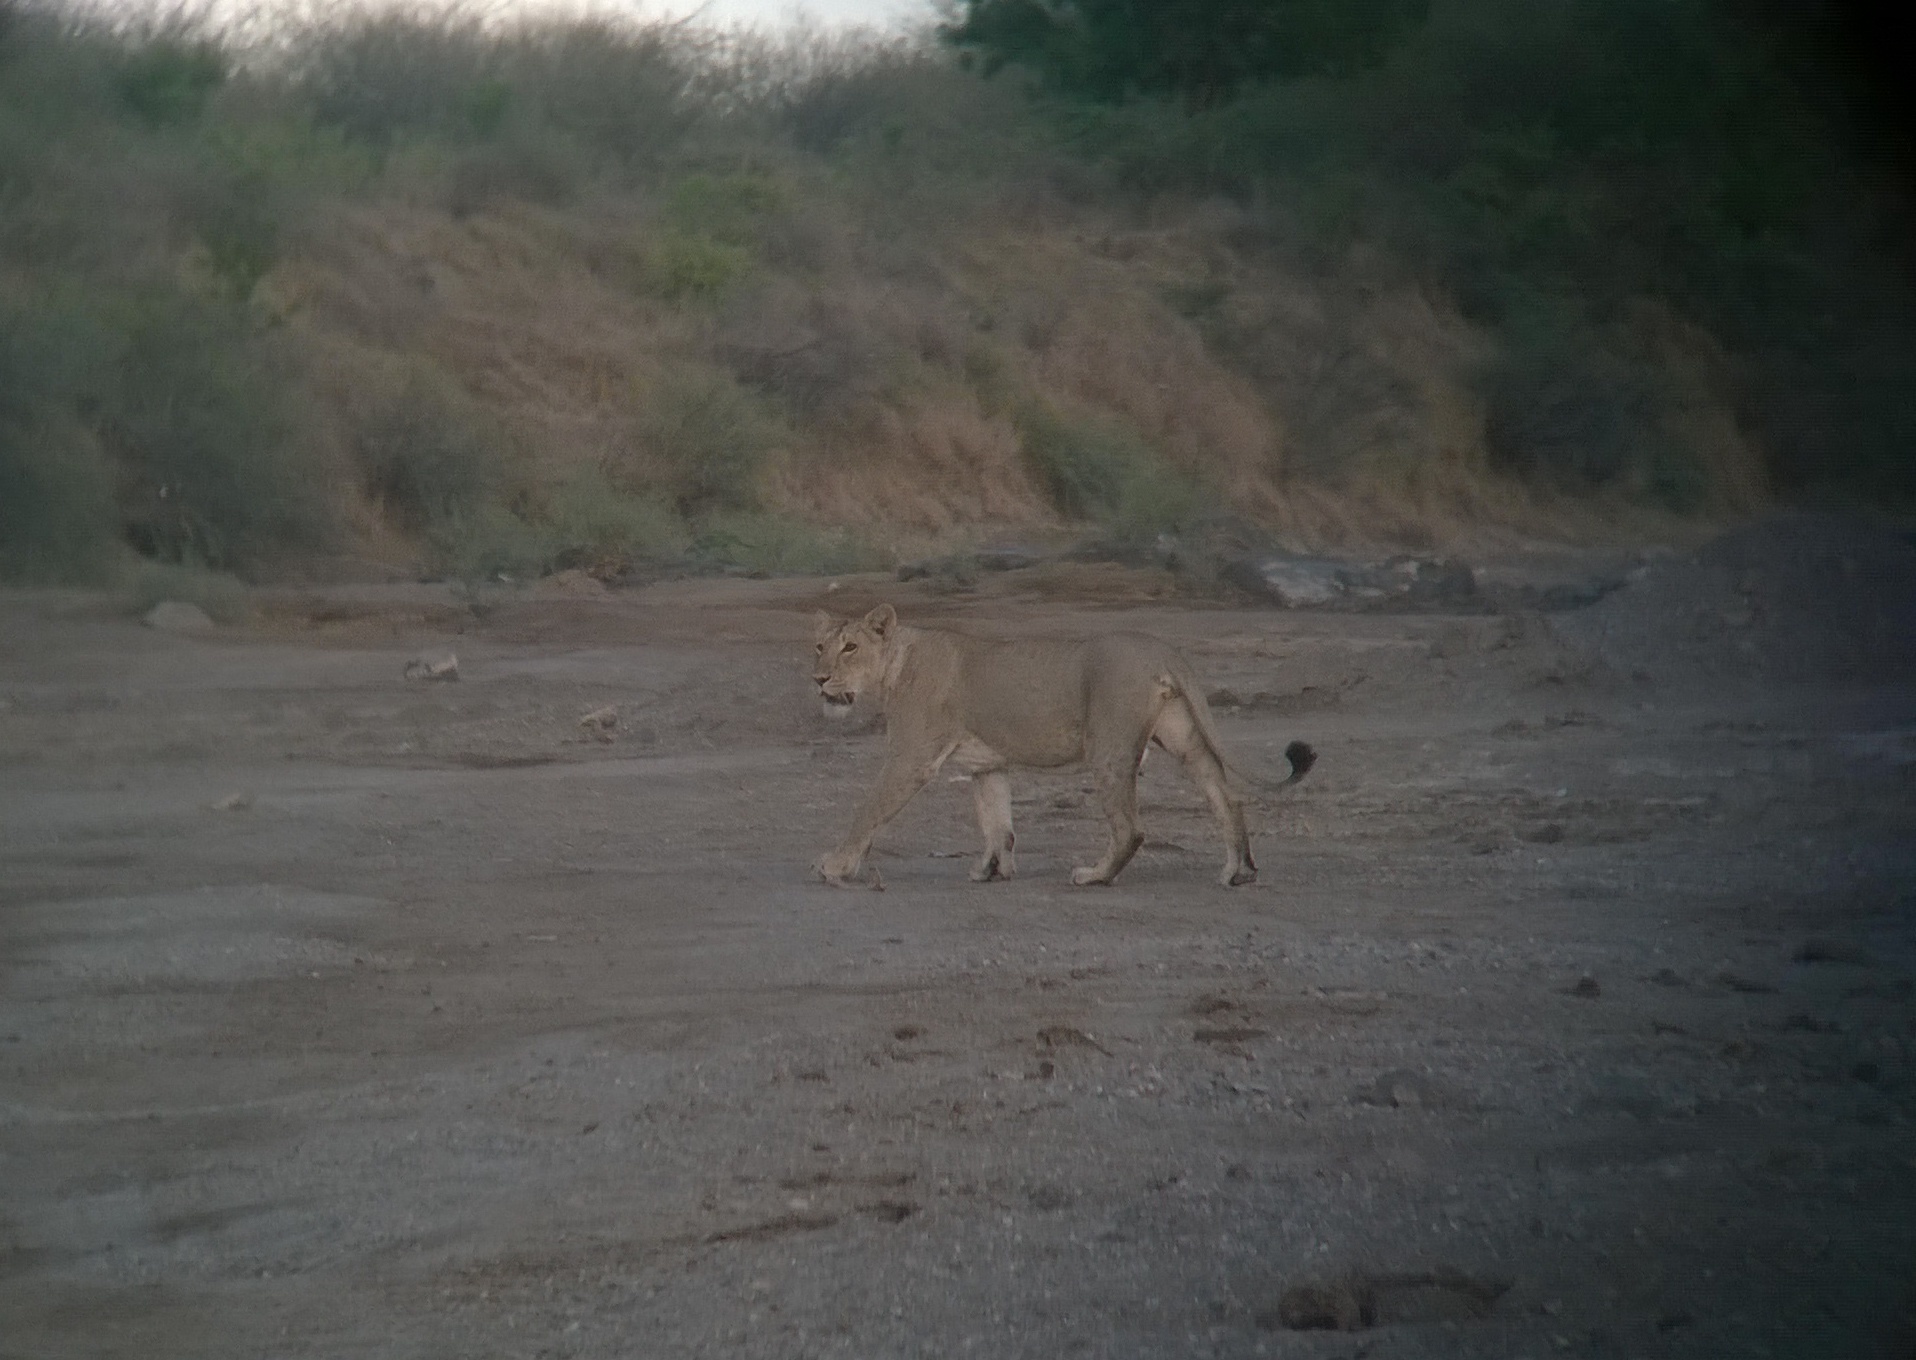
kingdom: Animalia
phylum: Chordata
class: Mammalia
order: Carnivora
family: Felidae
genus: Panthera
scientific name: Panthera leo
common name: Lion
